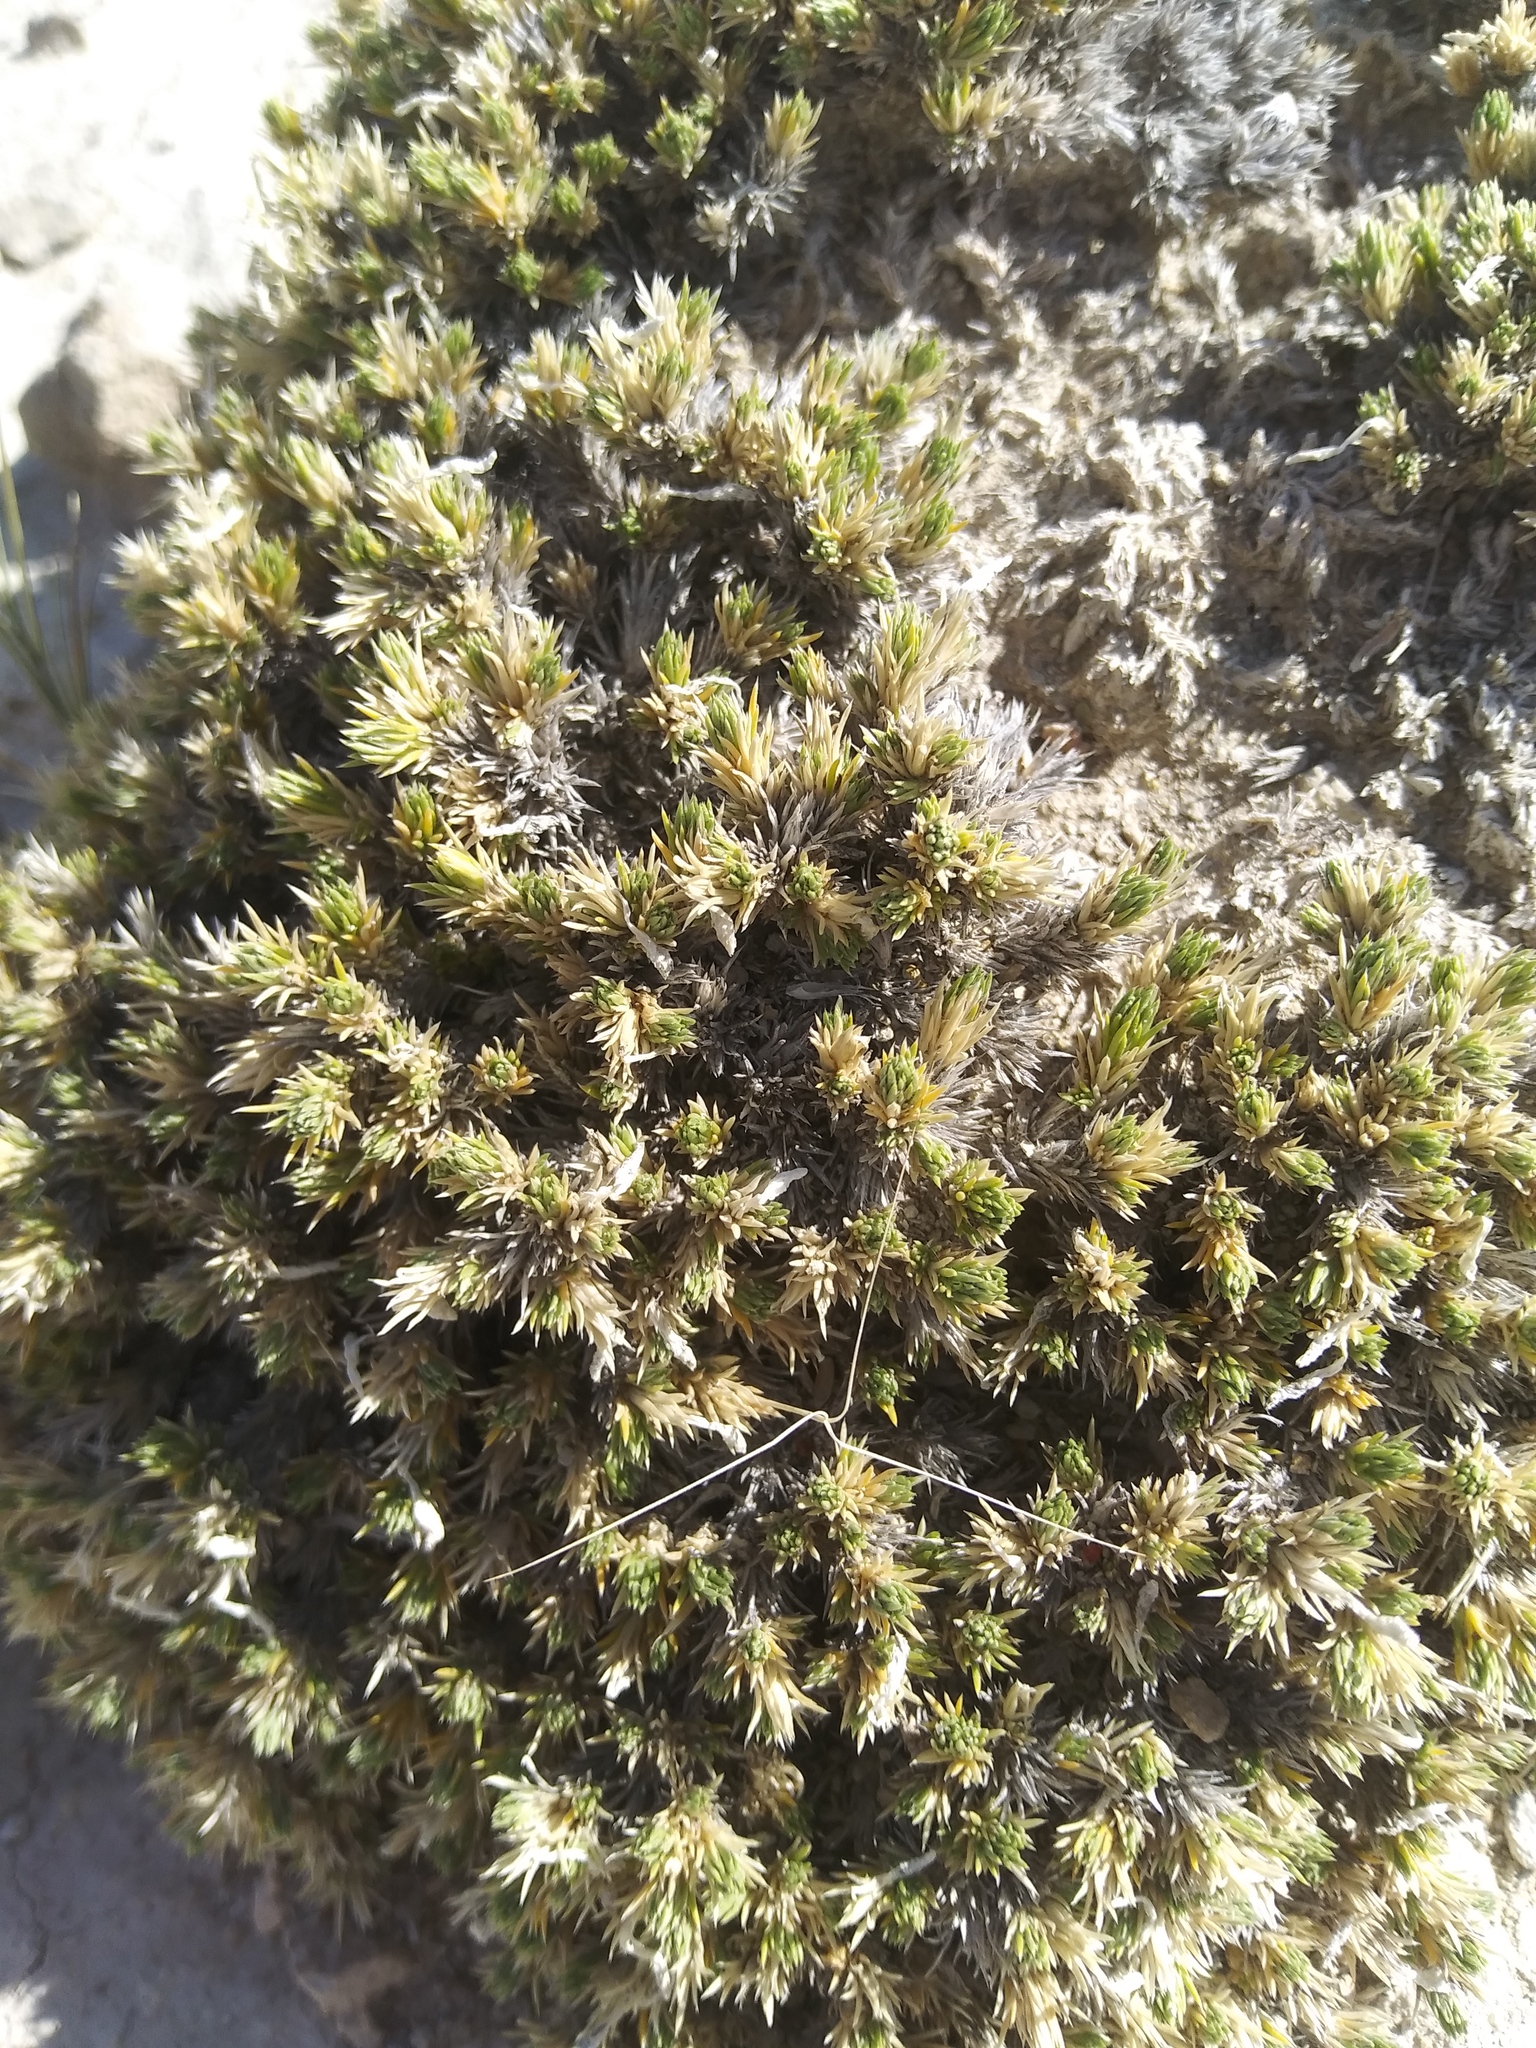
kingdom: Plantae
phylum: Tracheophyta
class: Magnoliopsida
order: Ericales
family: Polemoniaceae
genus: Linanthus
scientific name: Linanthus caespitosus
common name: Mat prickly phlox
